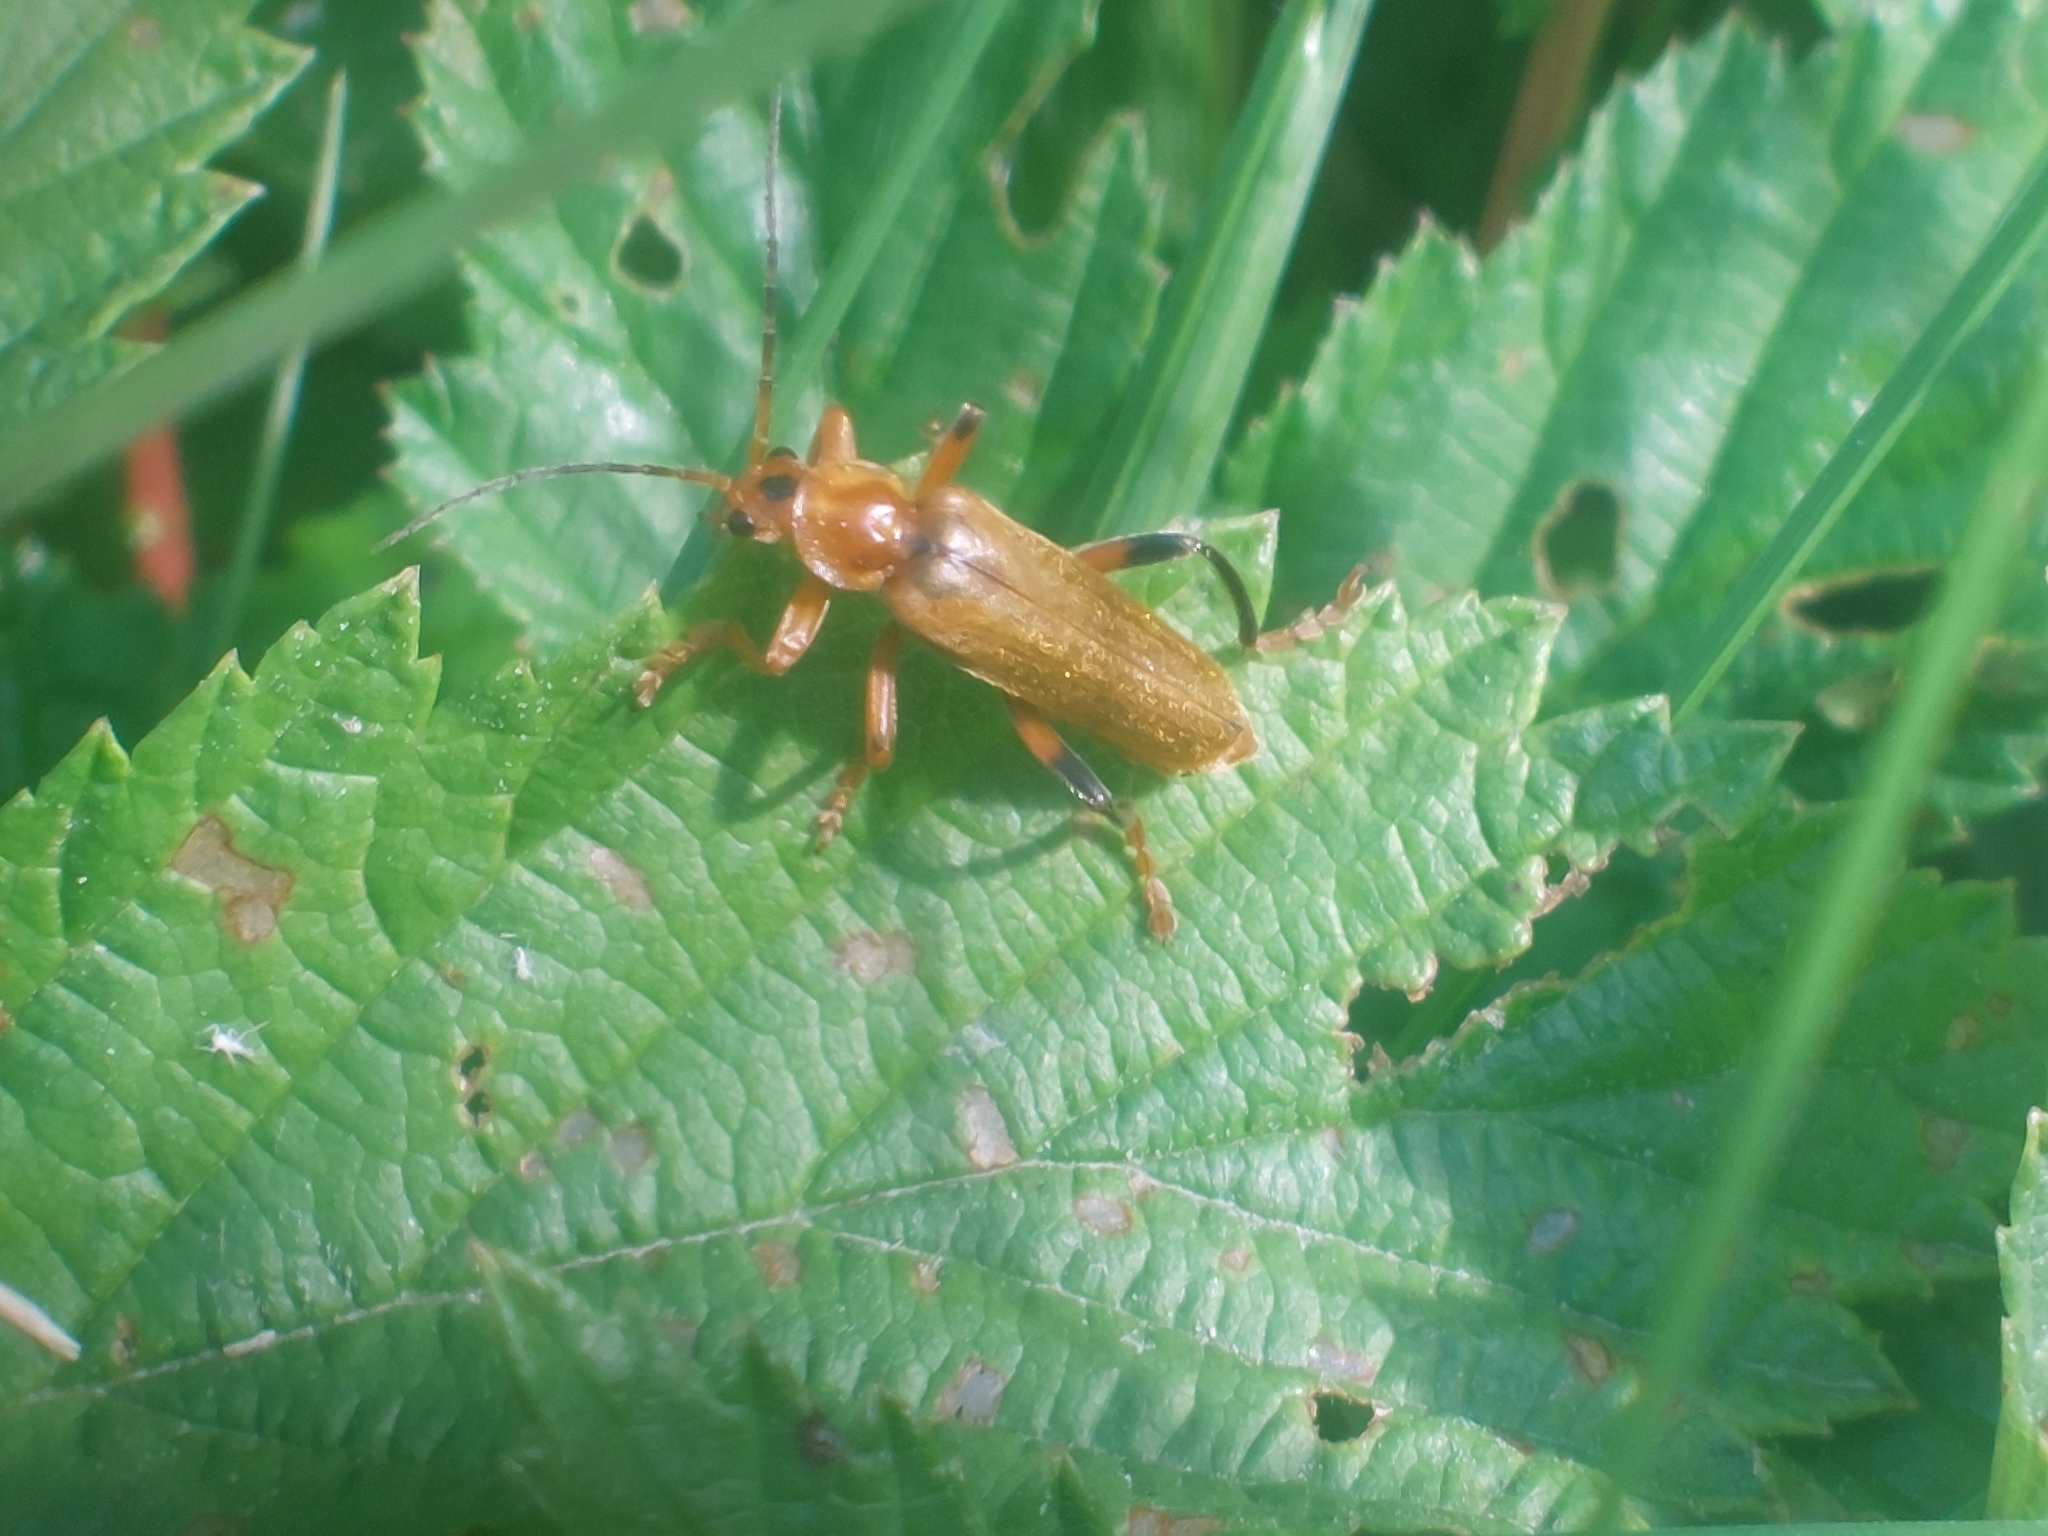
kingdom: Animalia
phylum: Arthropoda
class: Insecta
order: Coleoptera
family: Cantharidae
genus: Cantharis
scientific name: Cantharis livida
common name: Livid soldier beetle
